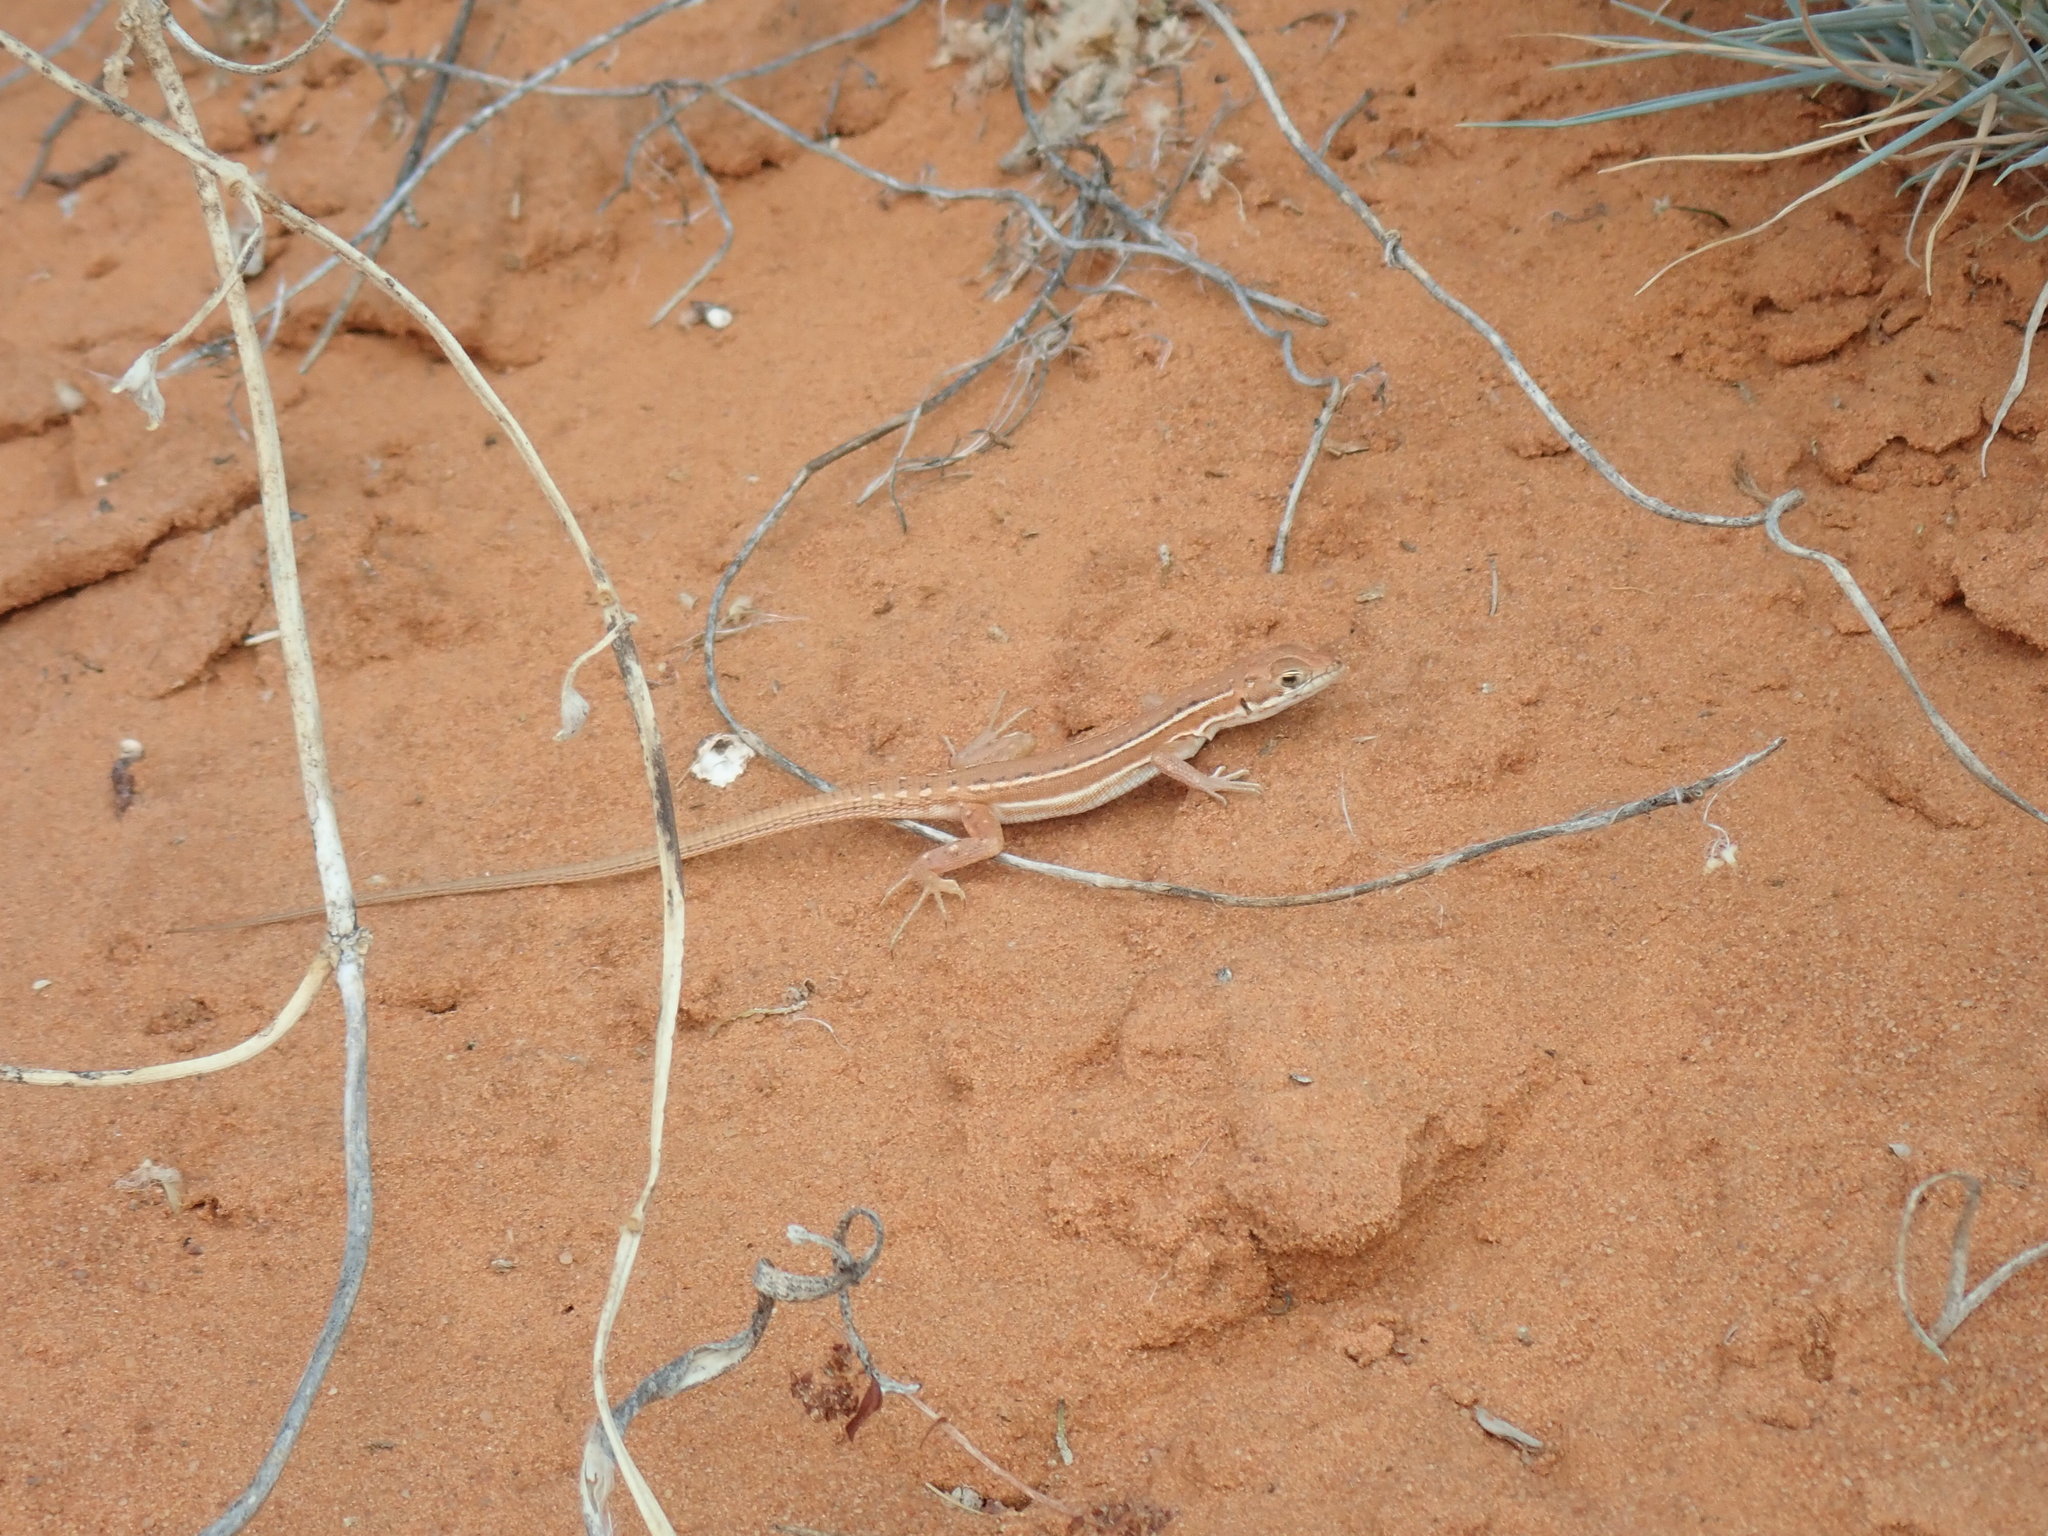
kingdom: Animalia
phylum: Chordata
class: Squamata
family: Lacertidae
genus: Pedioplanis
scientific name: Pedioplanis lineoocellata
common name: Spotted sand lizard
